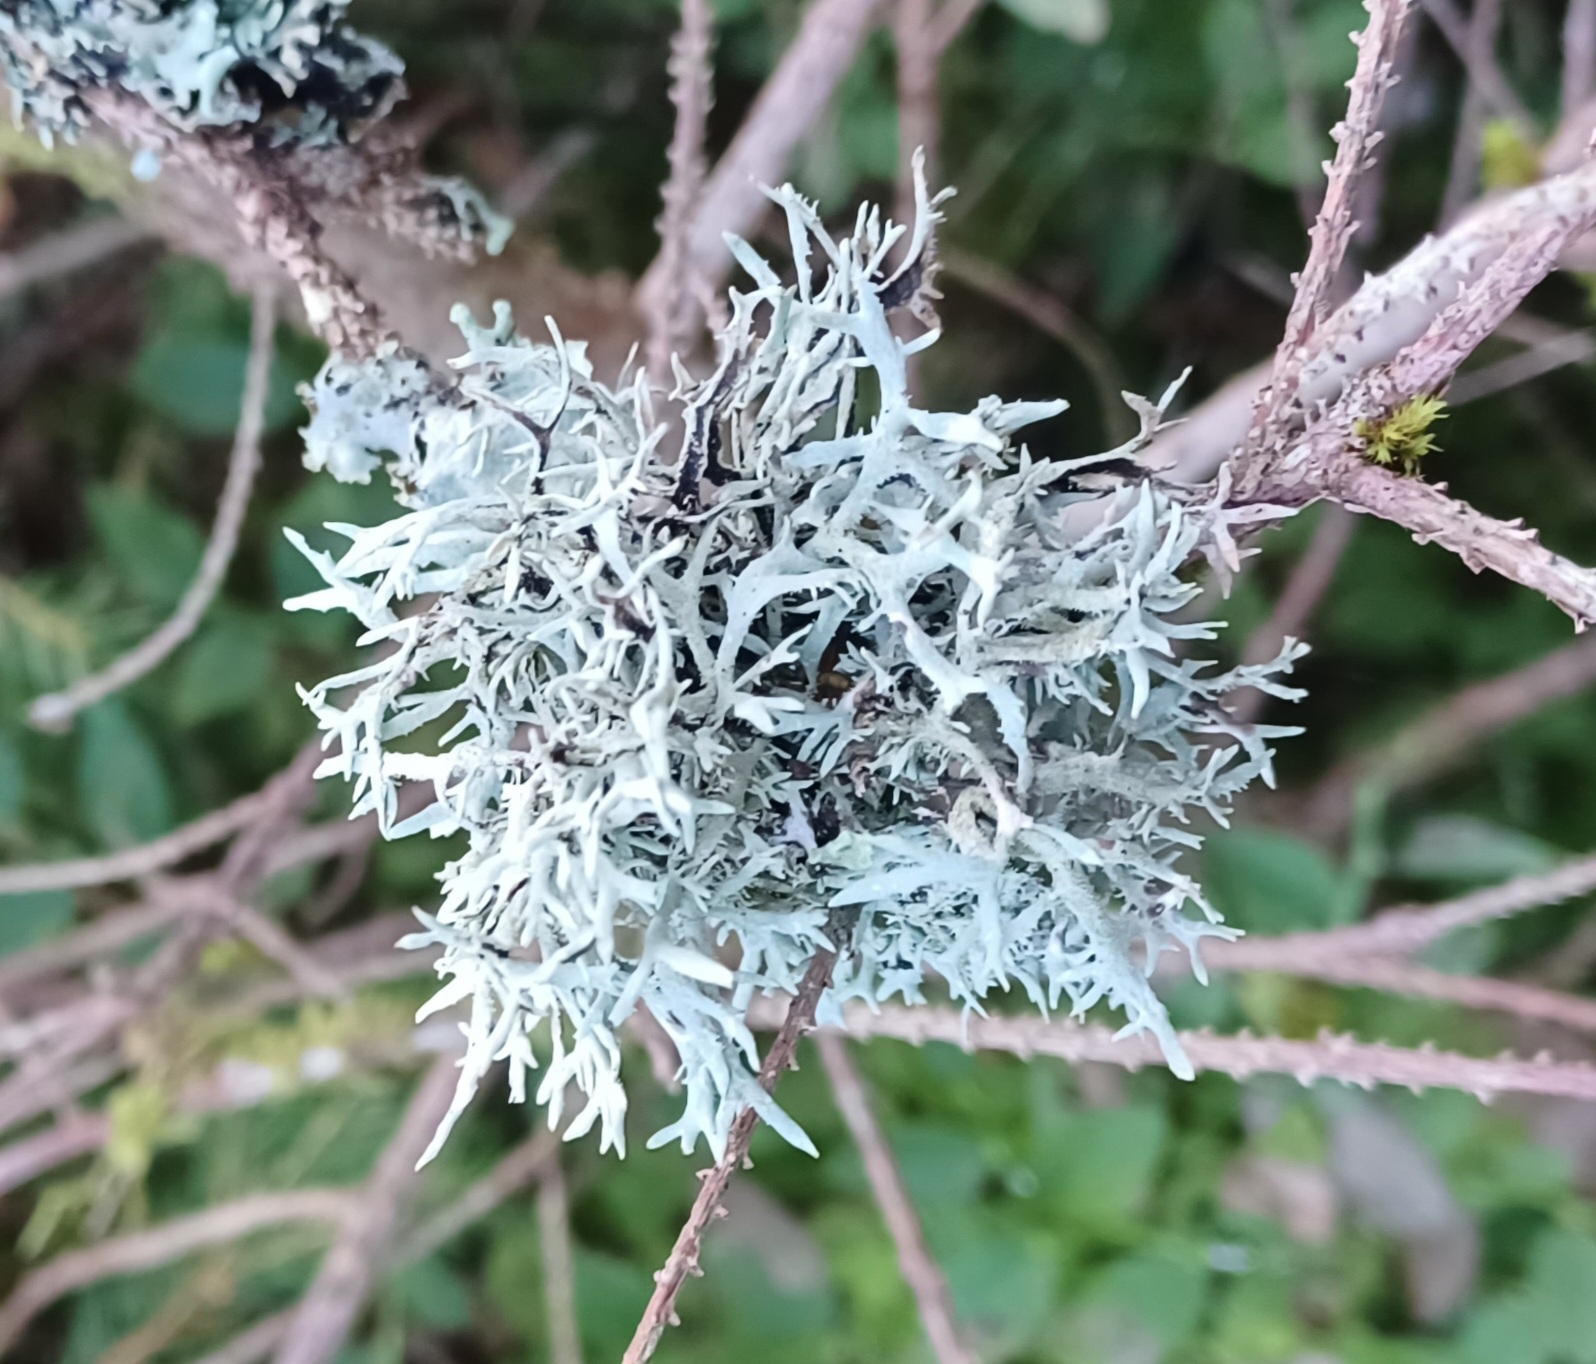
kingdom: Fungi
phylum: Ascomycota
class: Lecanoromycetes
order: Lecanorales
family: Parmeliaceae
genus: Pseudevernia
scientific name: Pseudevernia furfuracea
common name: Tree moss
